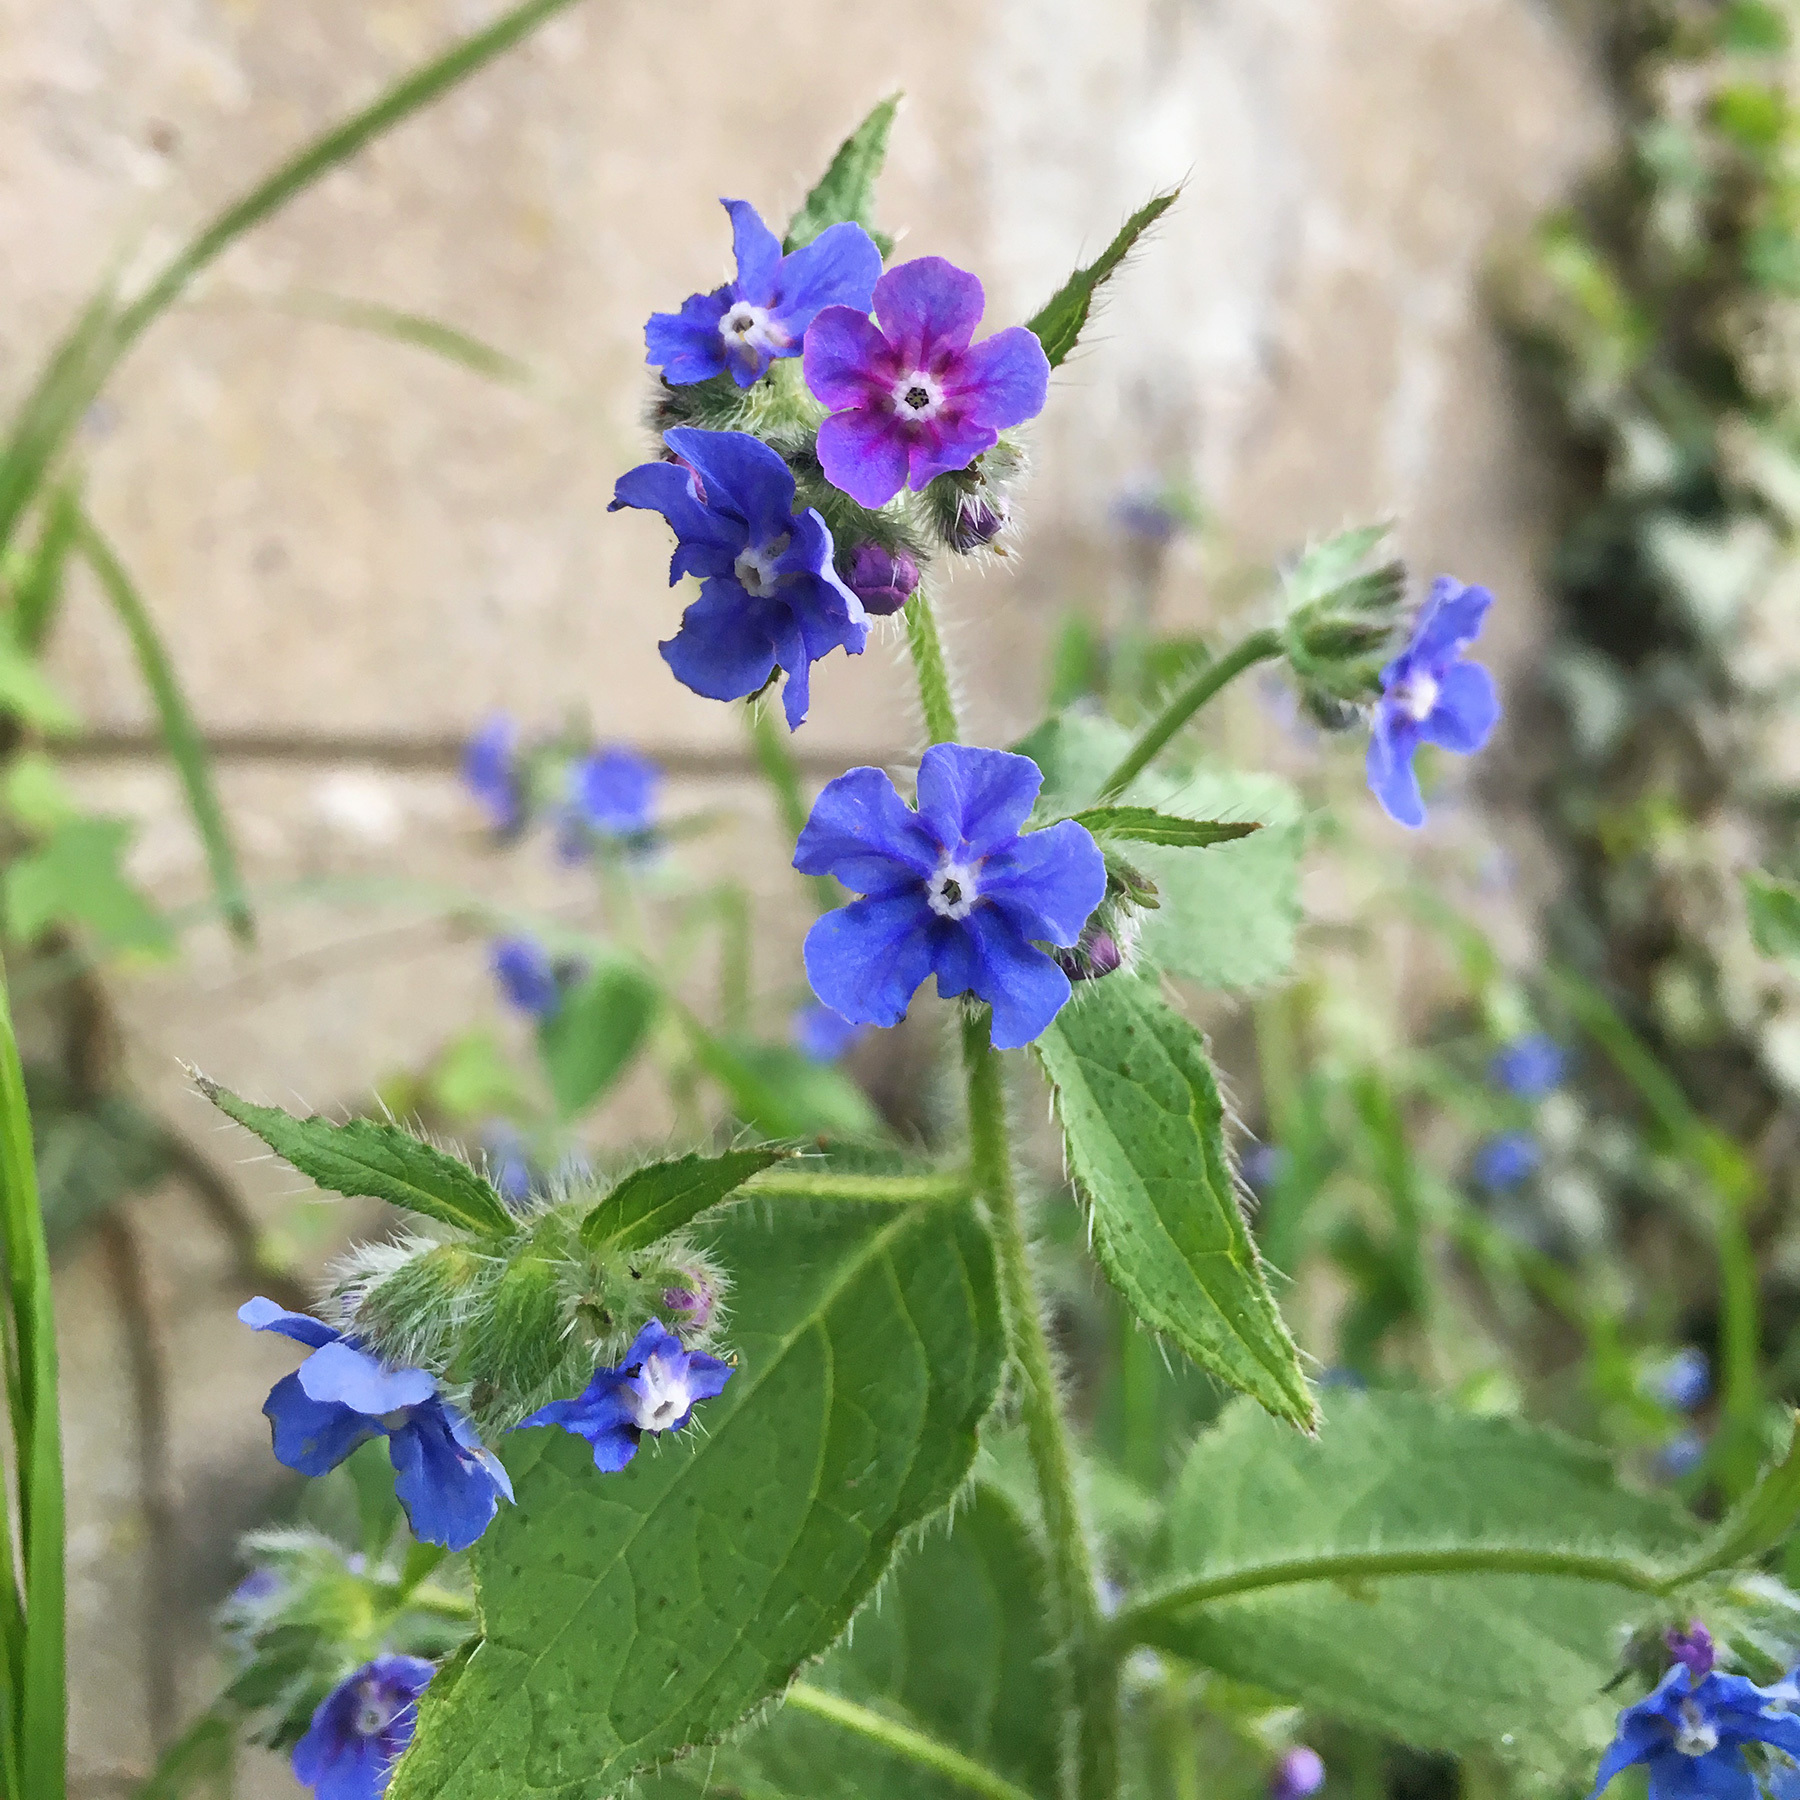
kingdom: Plantae
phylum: Tracheophyta
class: Magnoliopsida
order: Boraginales
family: Boraginaceae
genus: Pentaglottis
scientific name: Pentaglottis sempervirens
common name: Green alkanet
